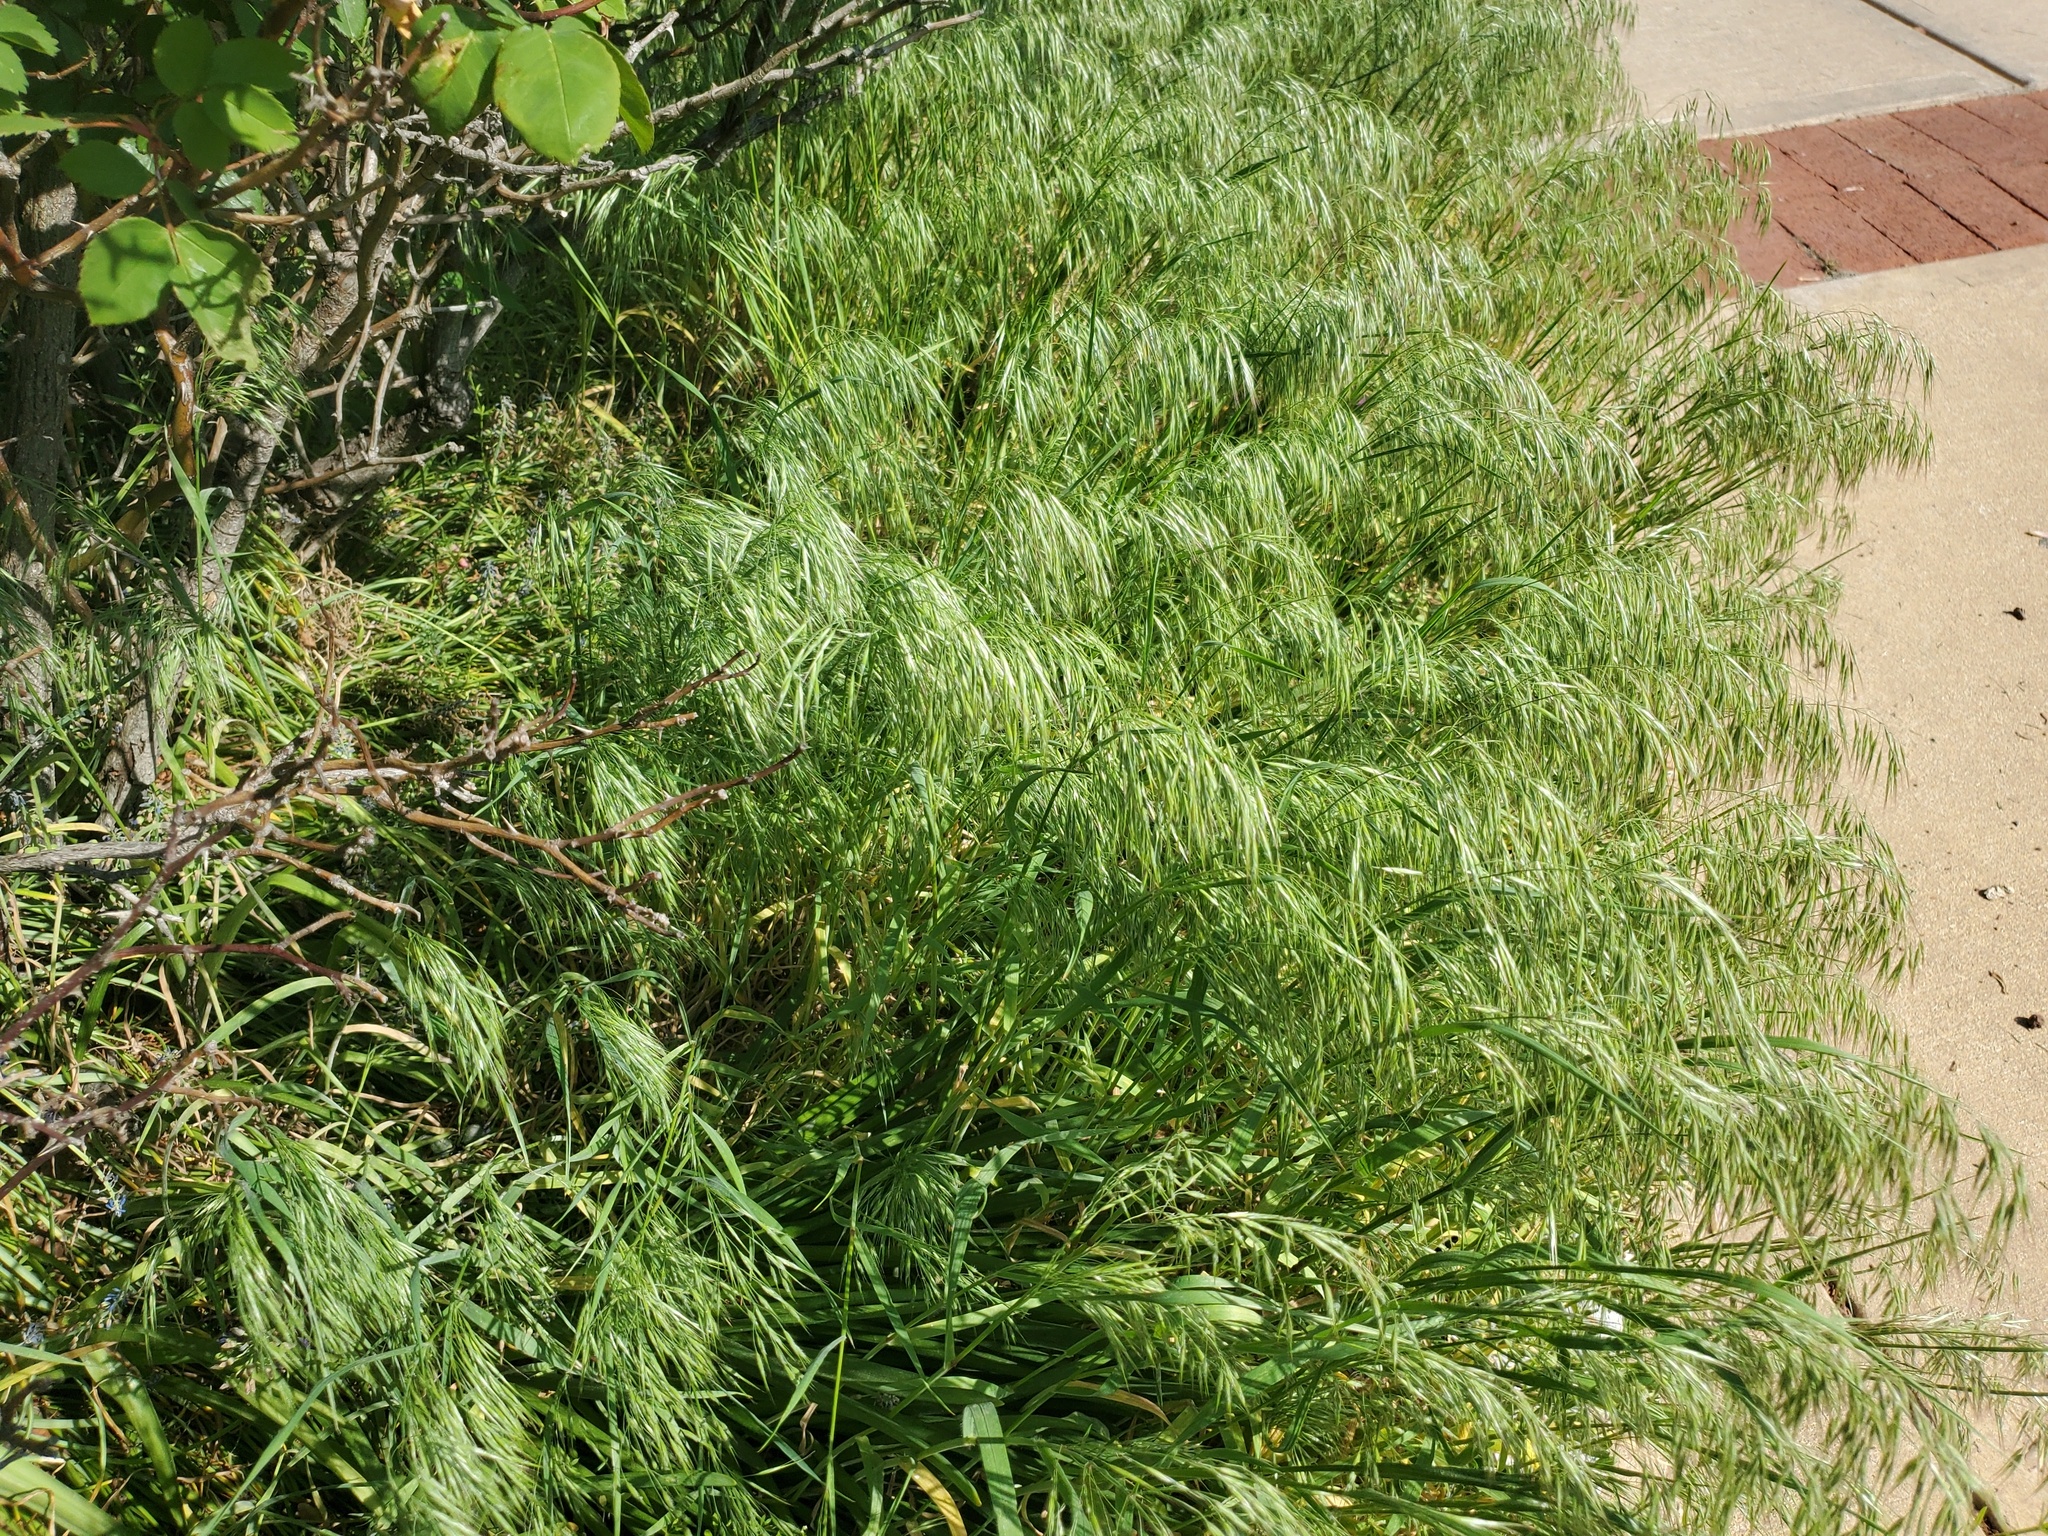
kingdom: Plantae
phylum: Tracheophyta
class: Liliopsida
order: Poales
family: Poaceae
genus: Bromus
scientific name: Bromus tectorum
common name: Cheatgrass
